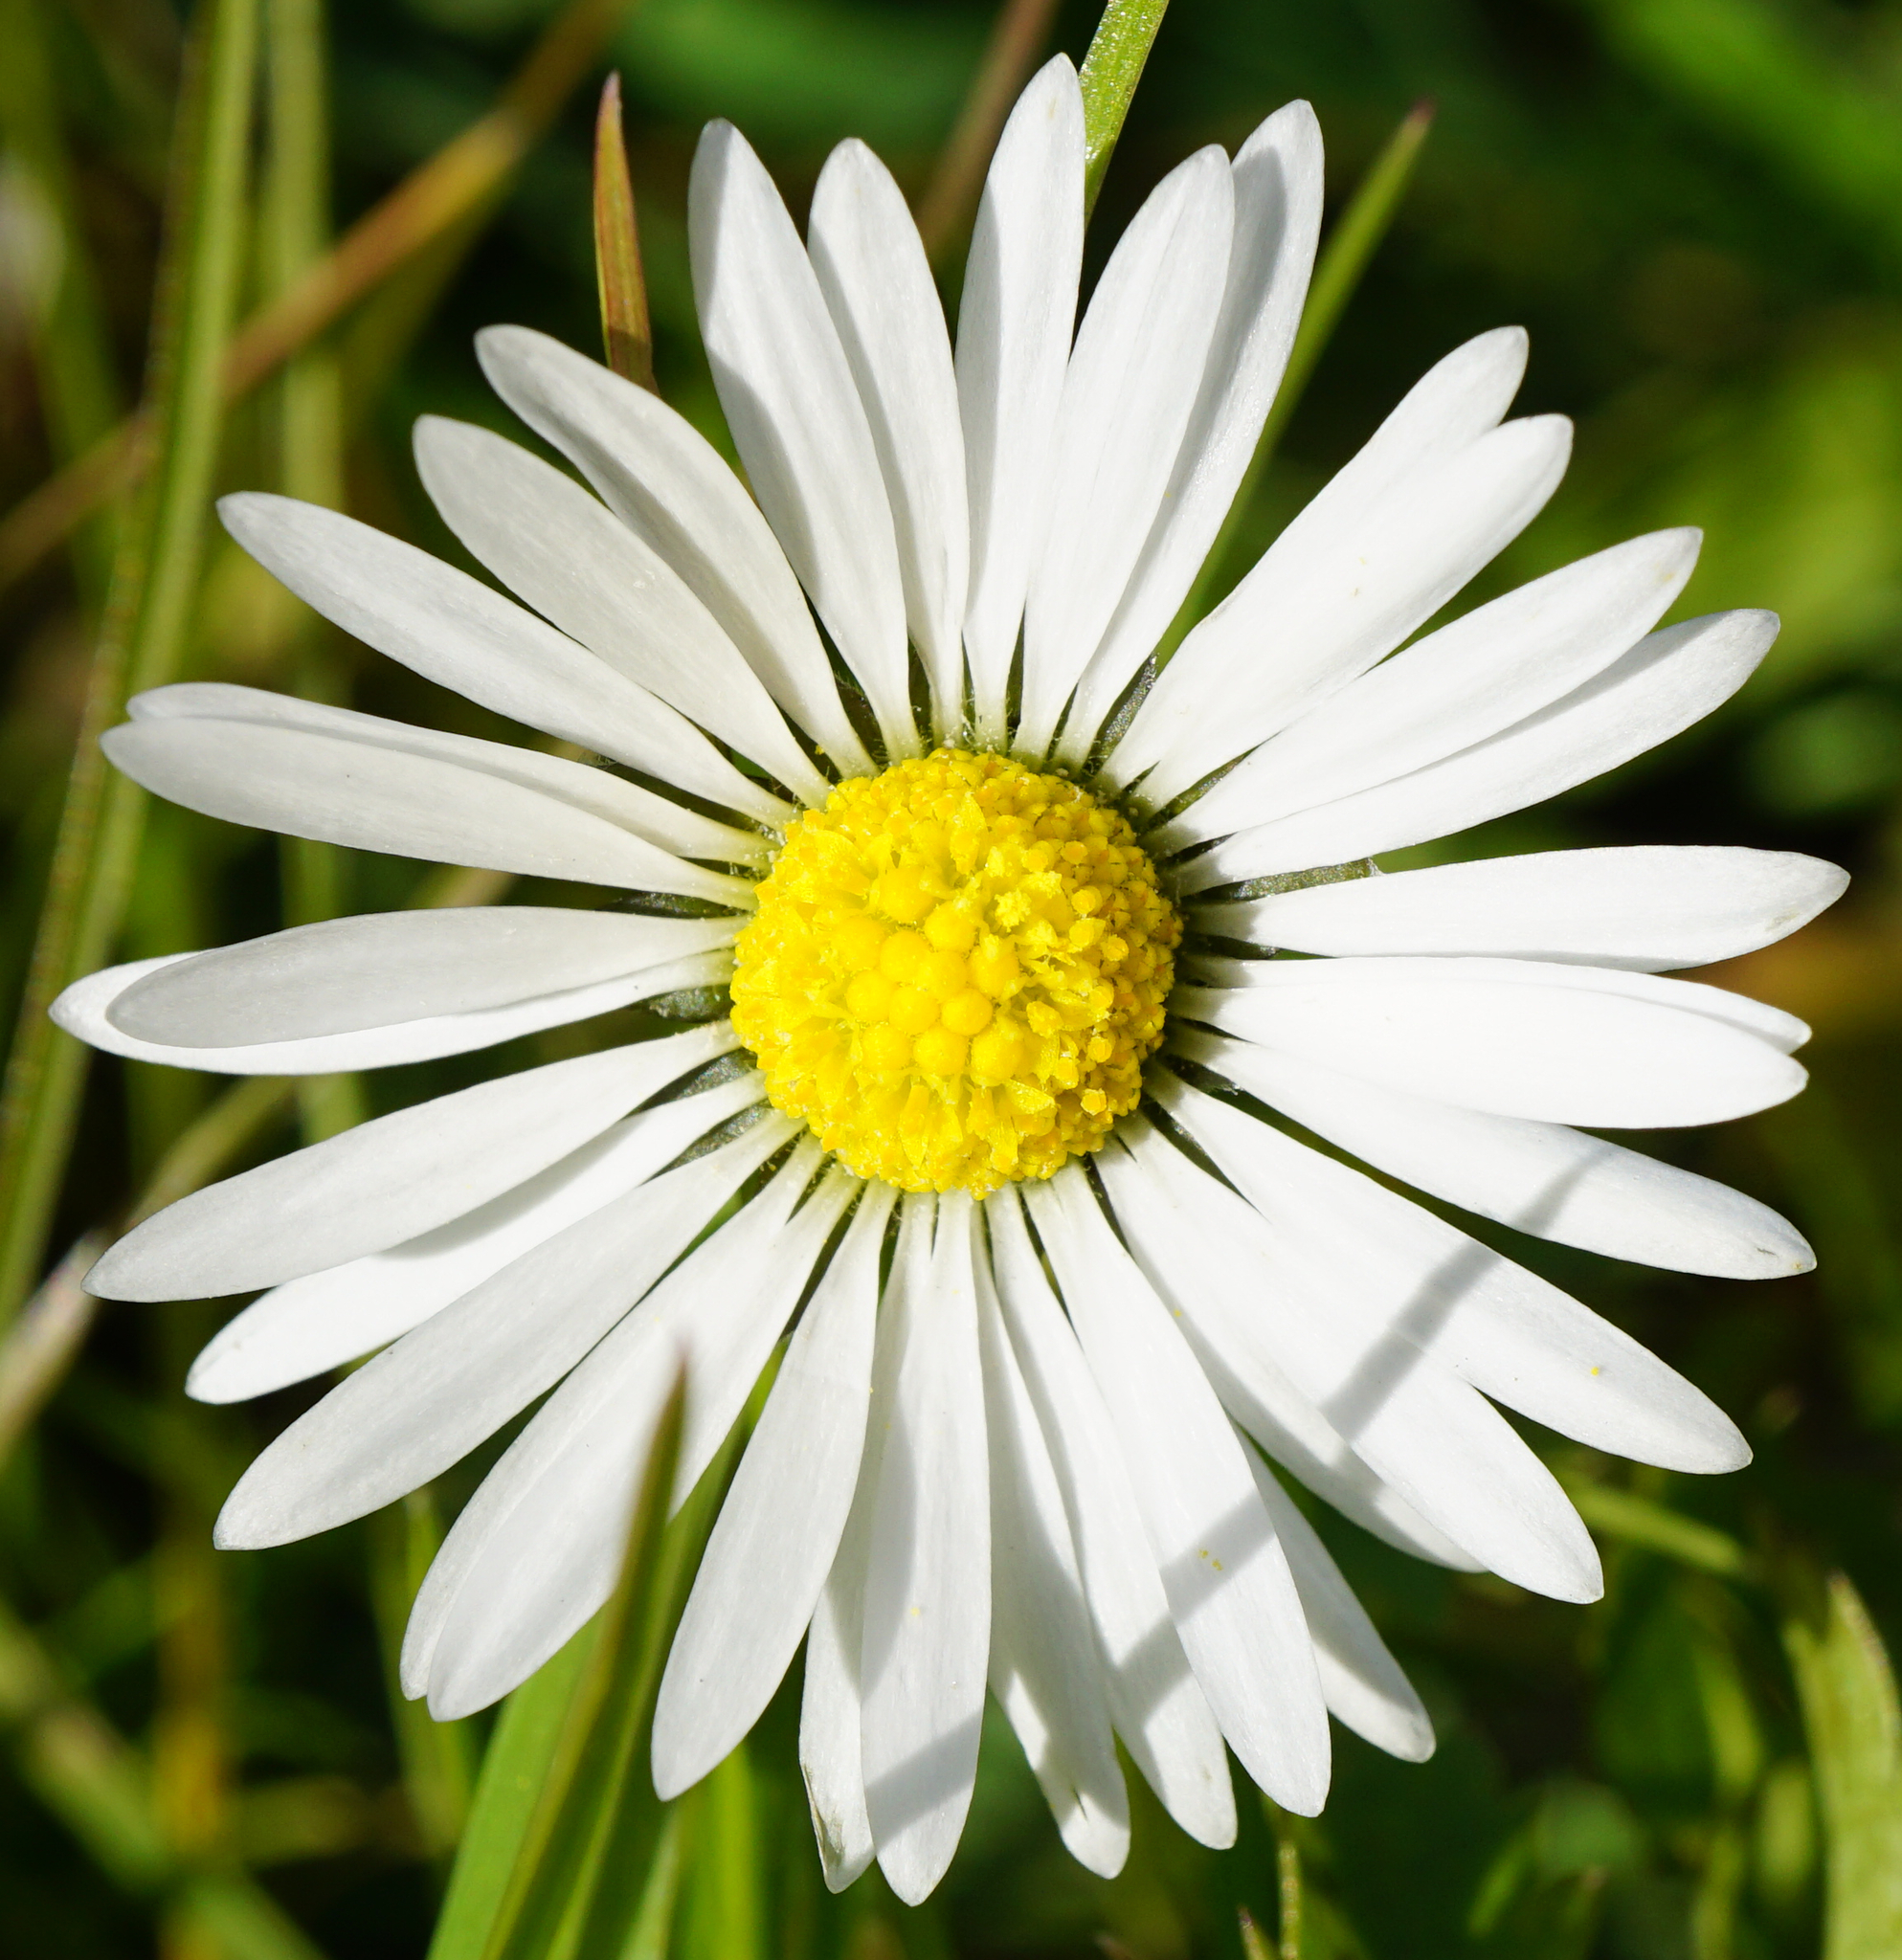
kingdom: Plantae
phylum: Tracheophyta
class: Magnoliopsida
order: Asterales
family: Asteraceae
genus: Bellis
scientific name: Bellis perennis
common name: Lawndaisy
